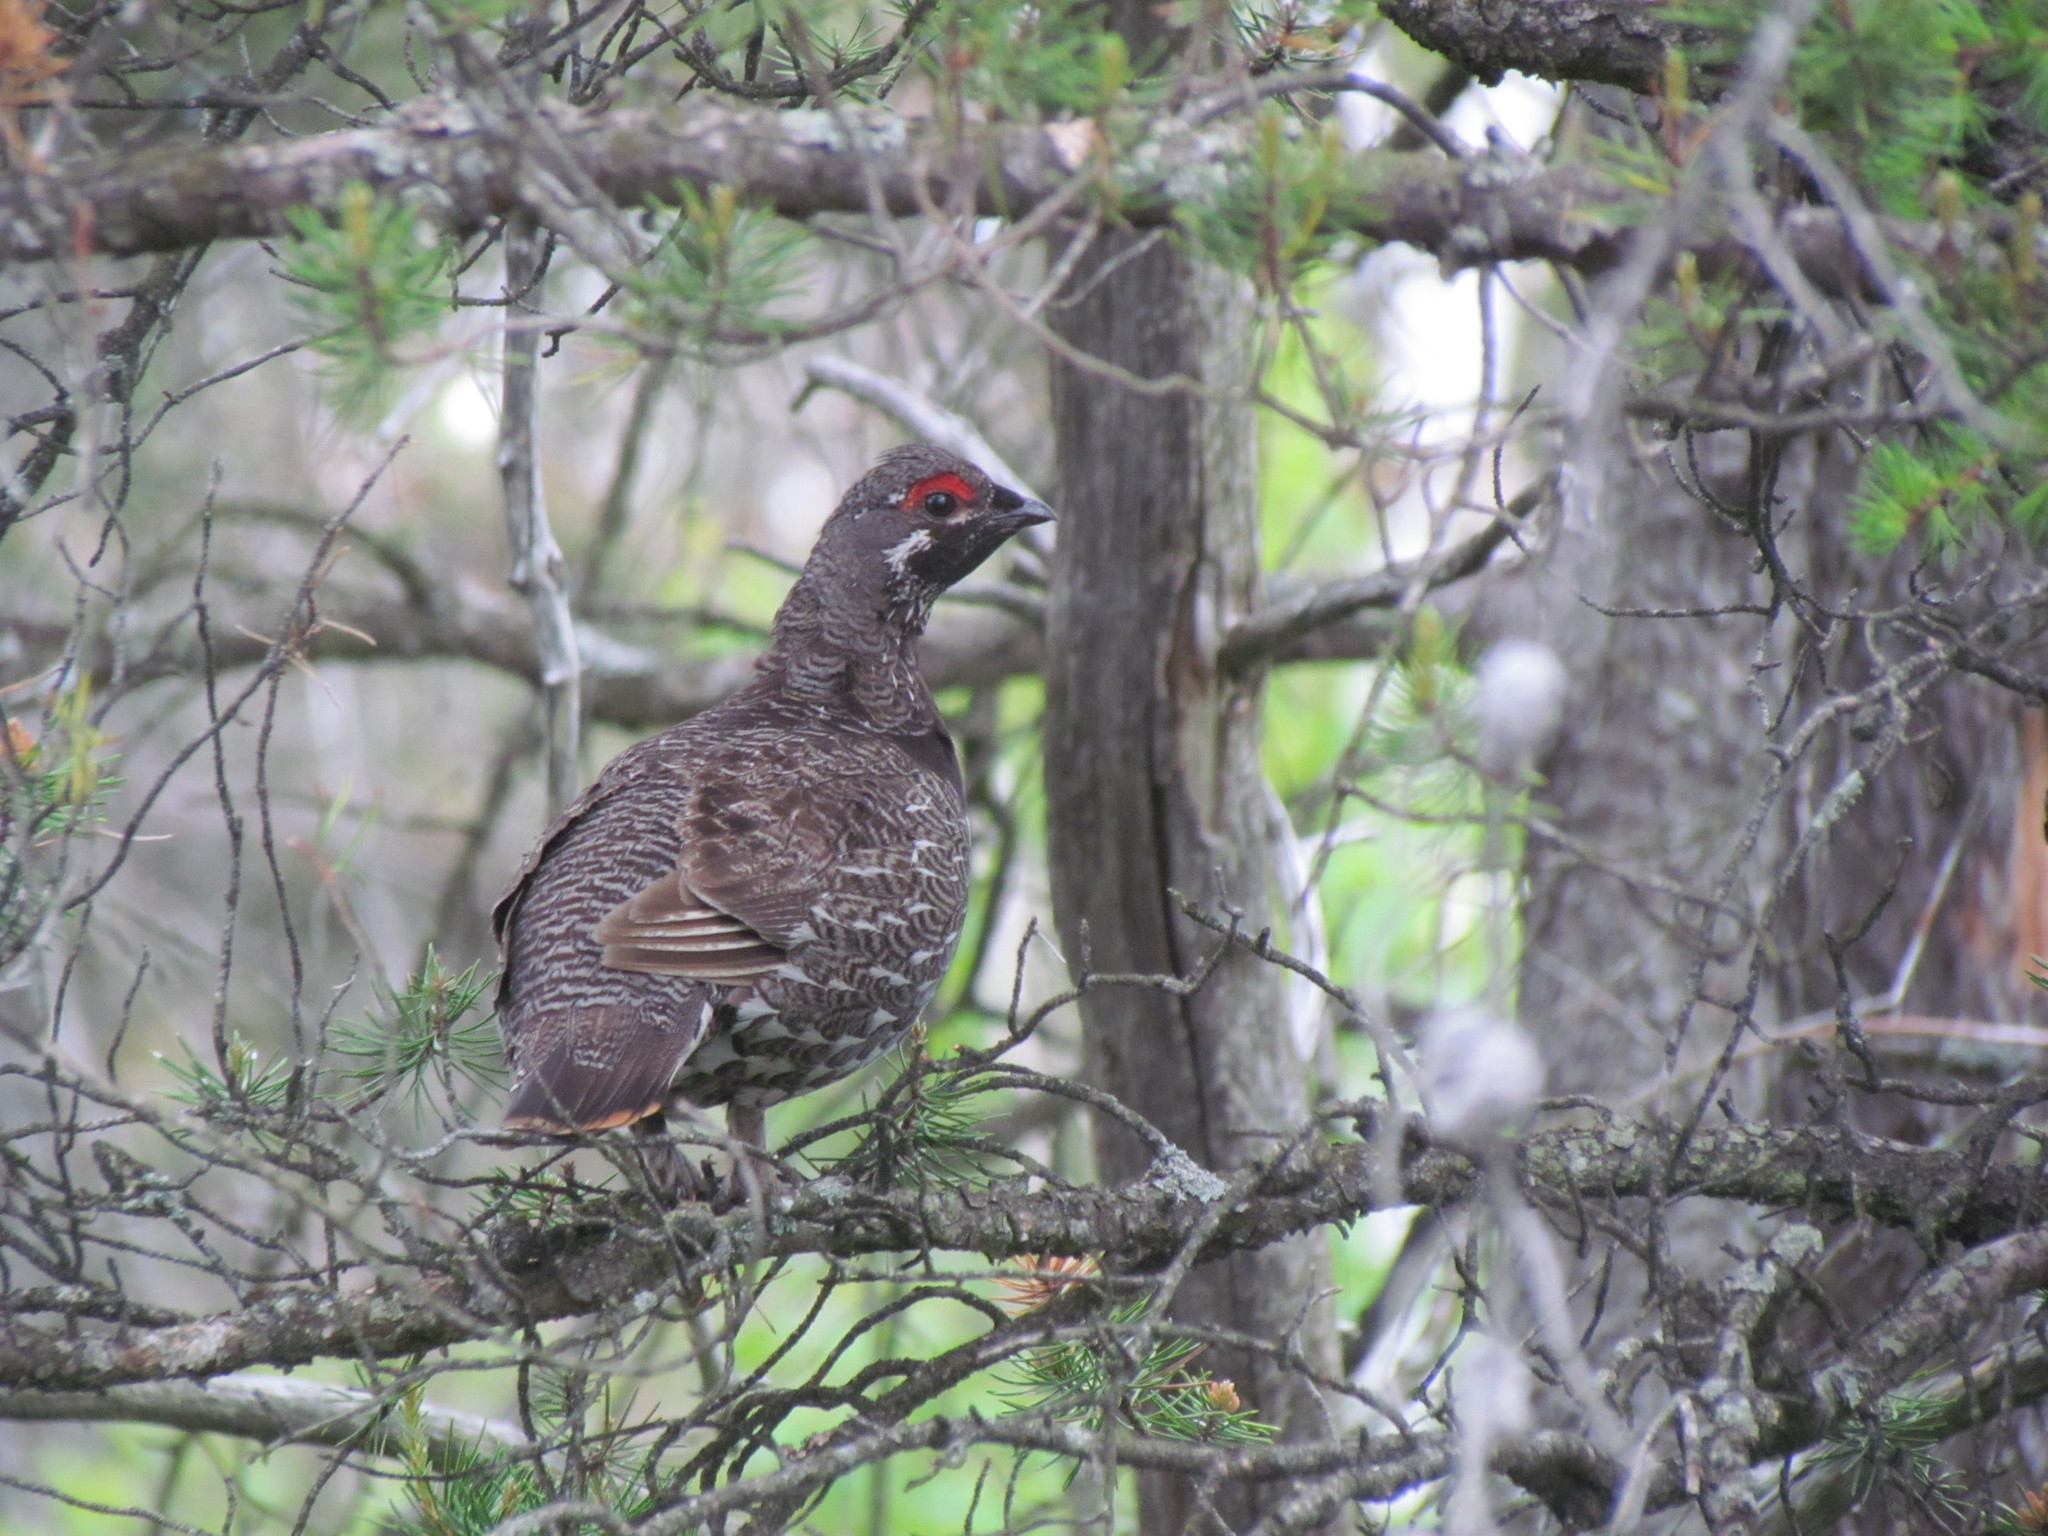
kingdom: Animalia
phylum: Chordata
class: Aves
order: Galliformes
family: Phasianidae
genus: Canachites
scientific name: Canachites canadensis
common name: Spruce grouse
